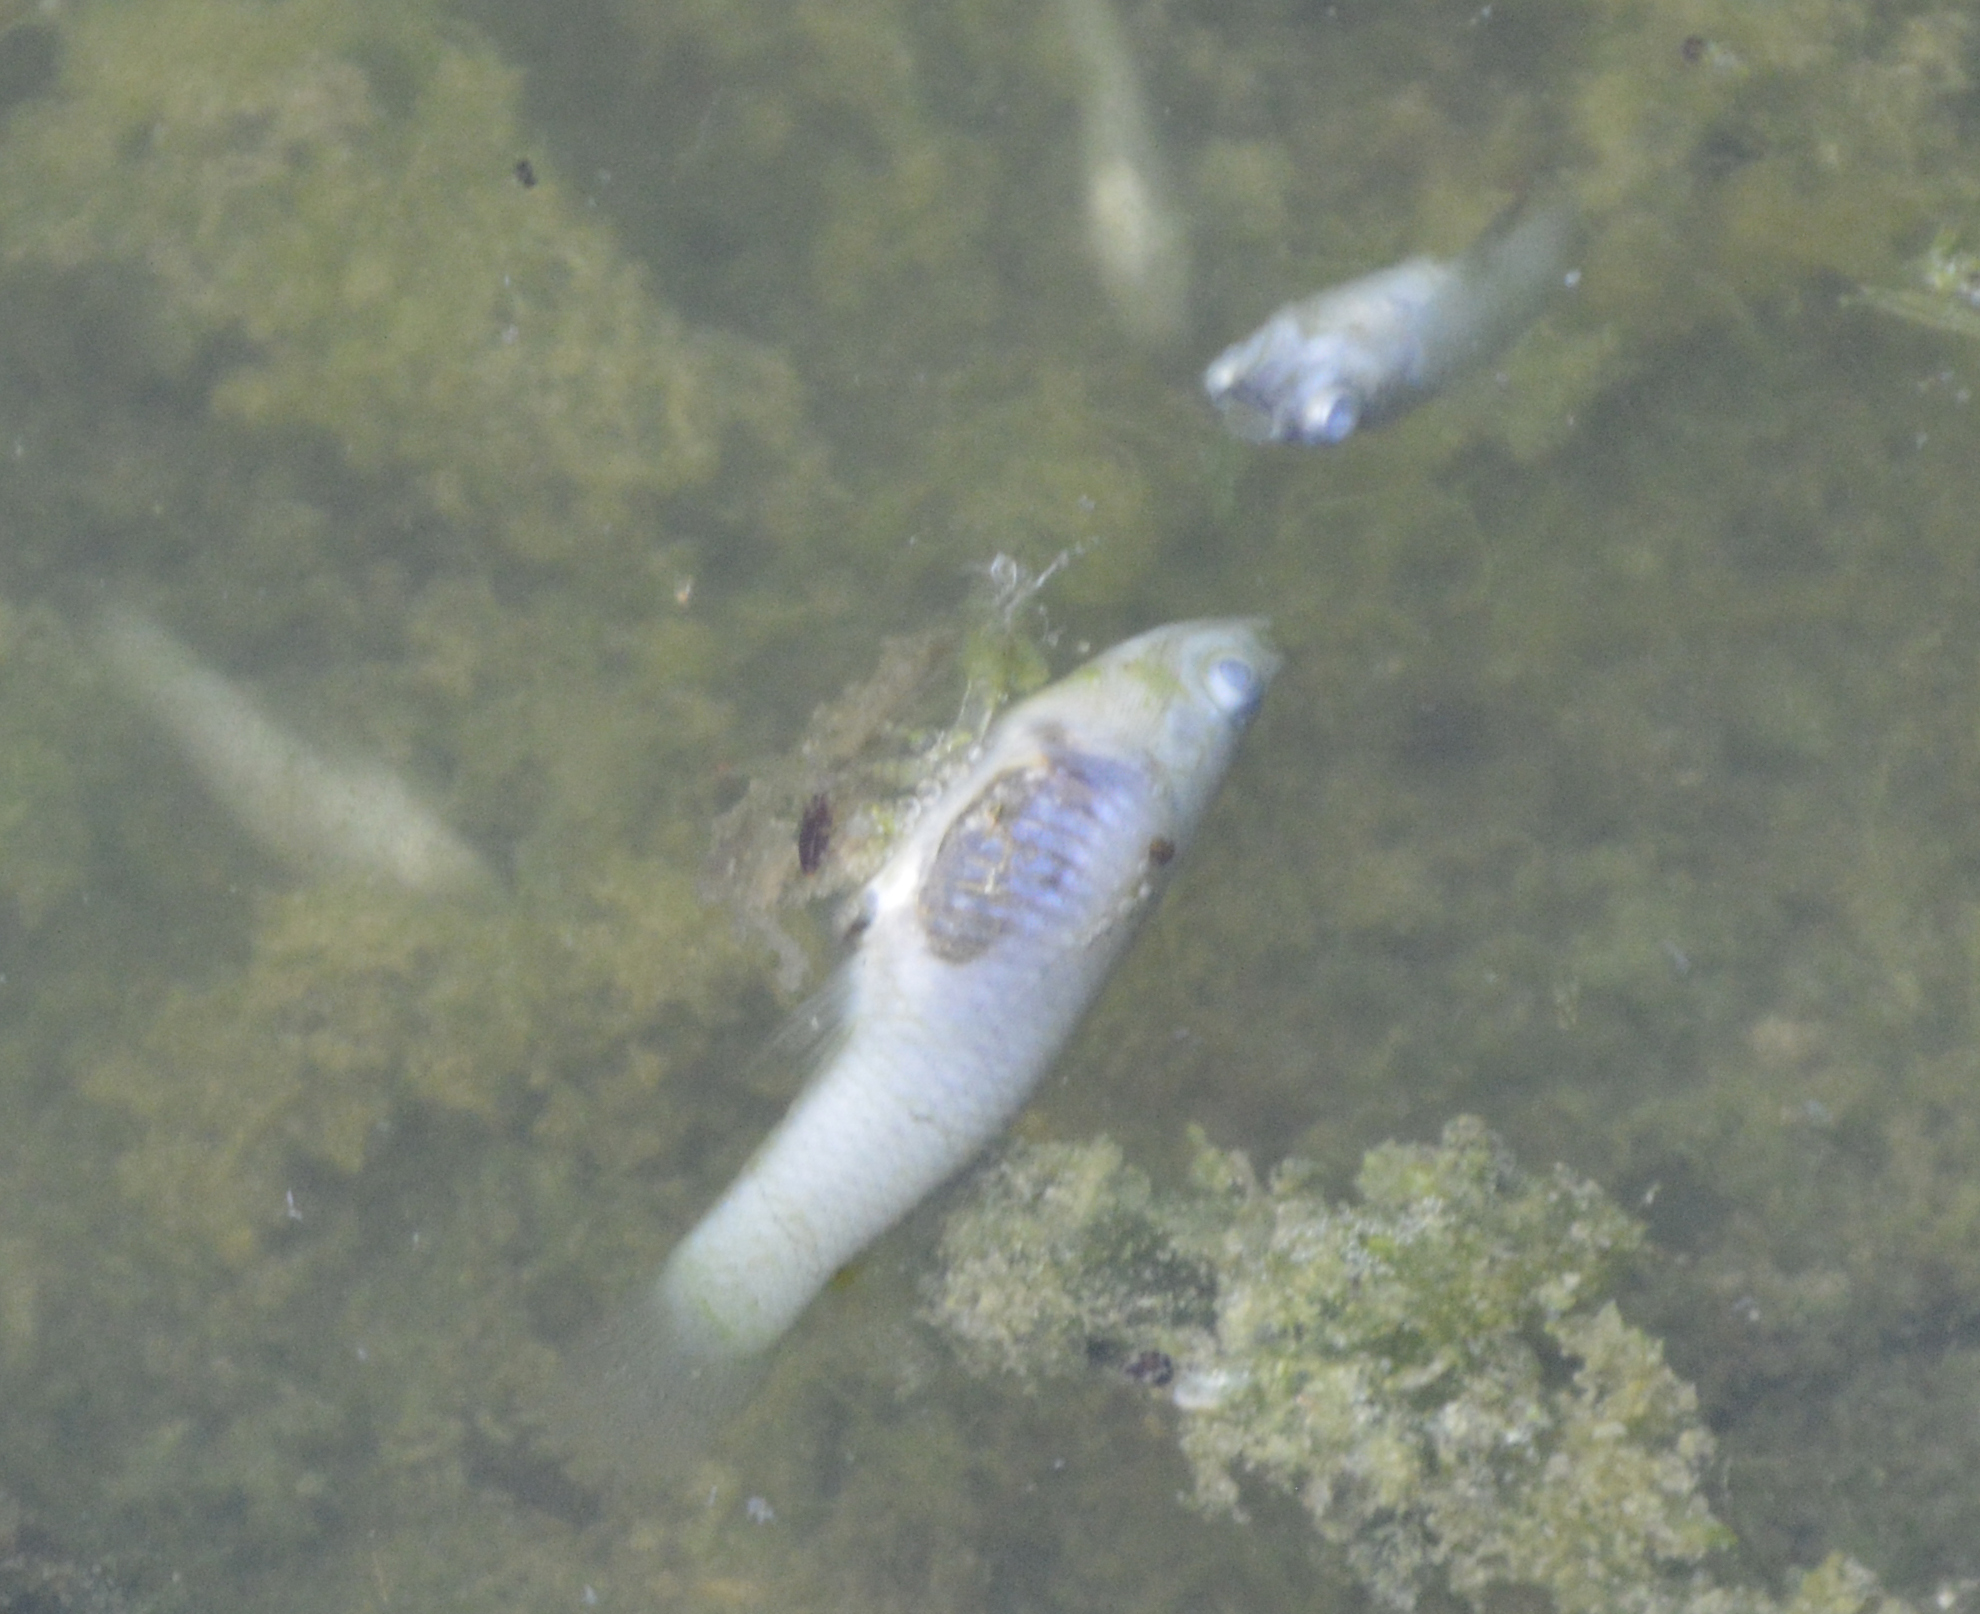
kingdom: Animalia
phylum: Chordata
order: Cyprinodontiformes
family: Poeciliidae
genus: Gambusia
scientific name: Gambusia affinis
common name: Mosquitofish
